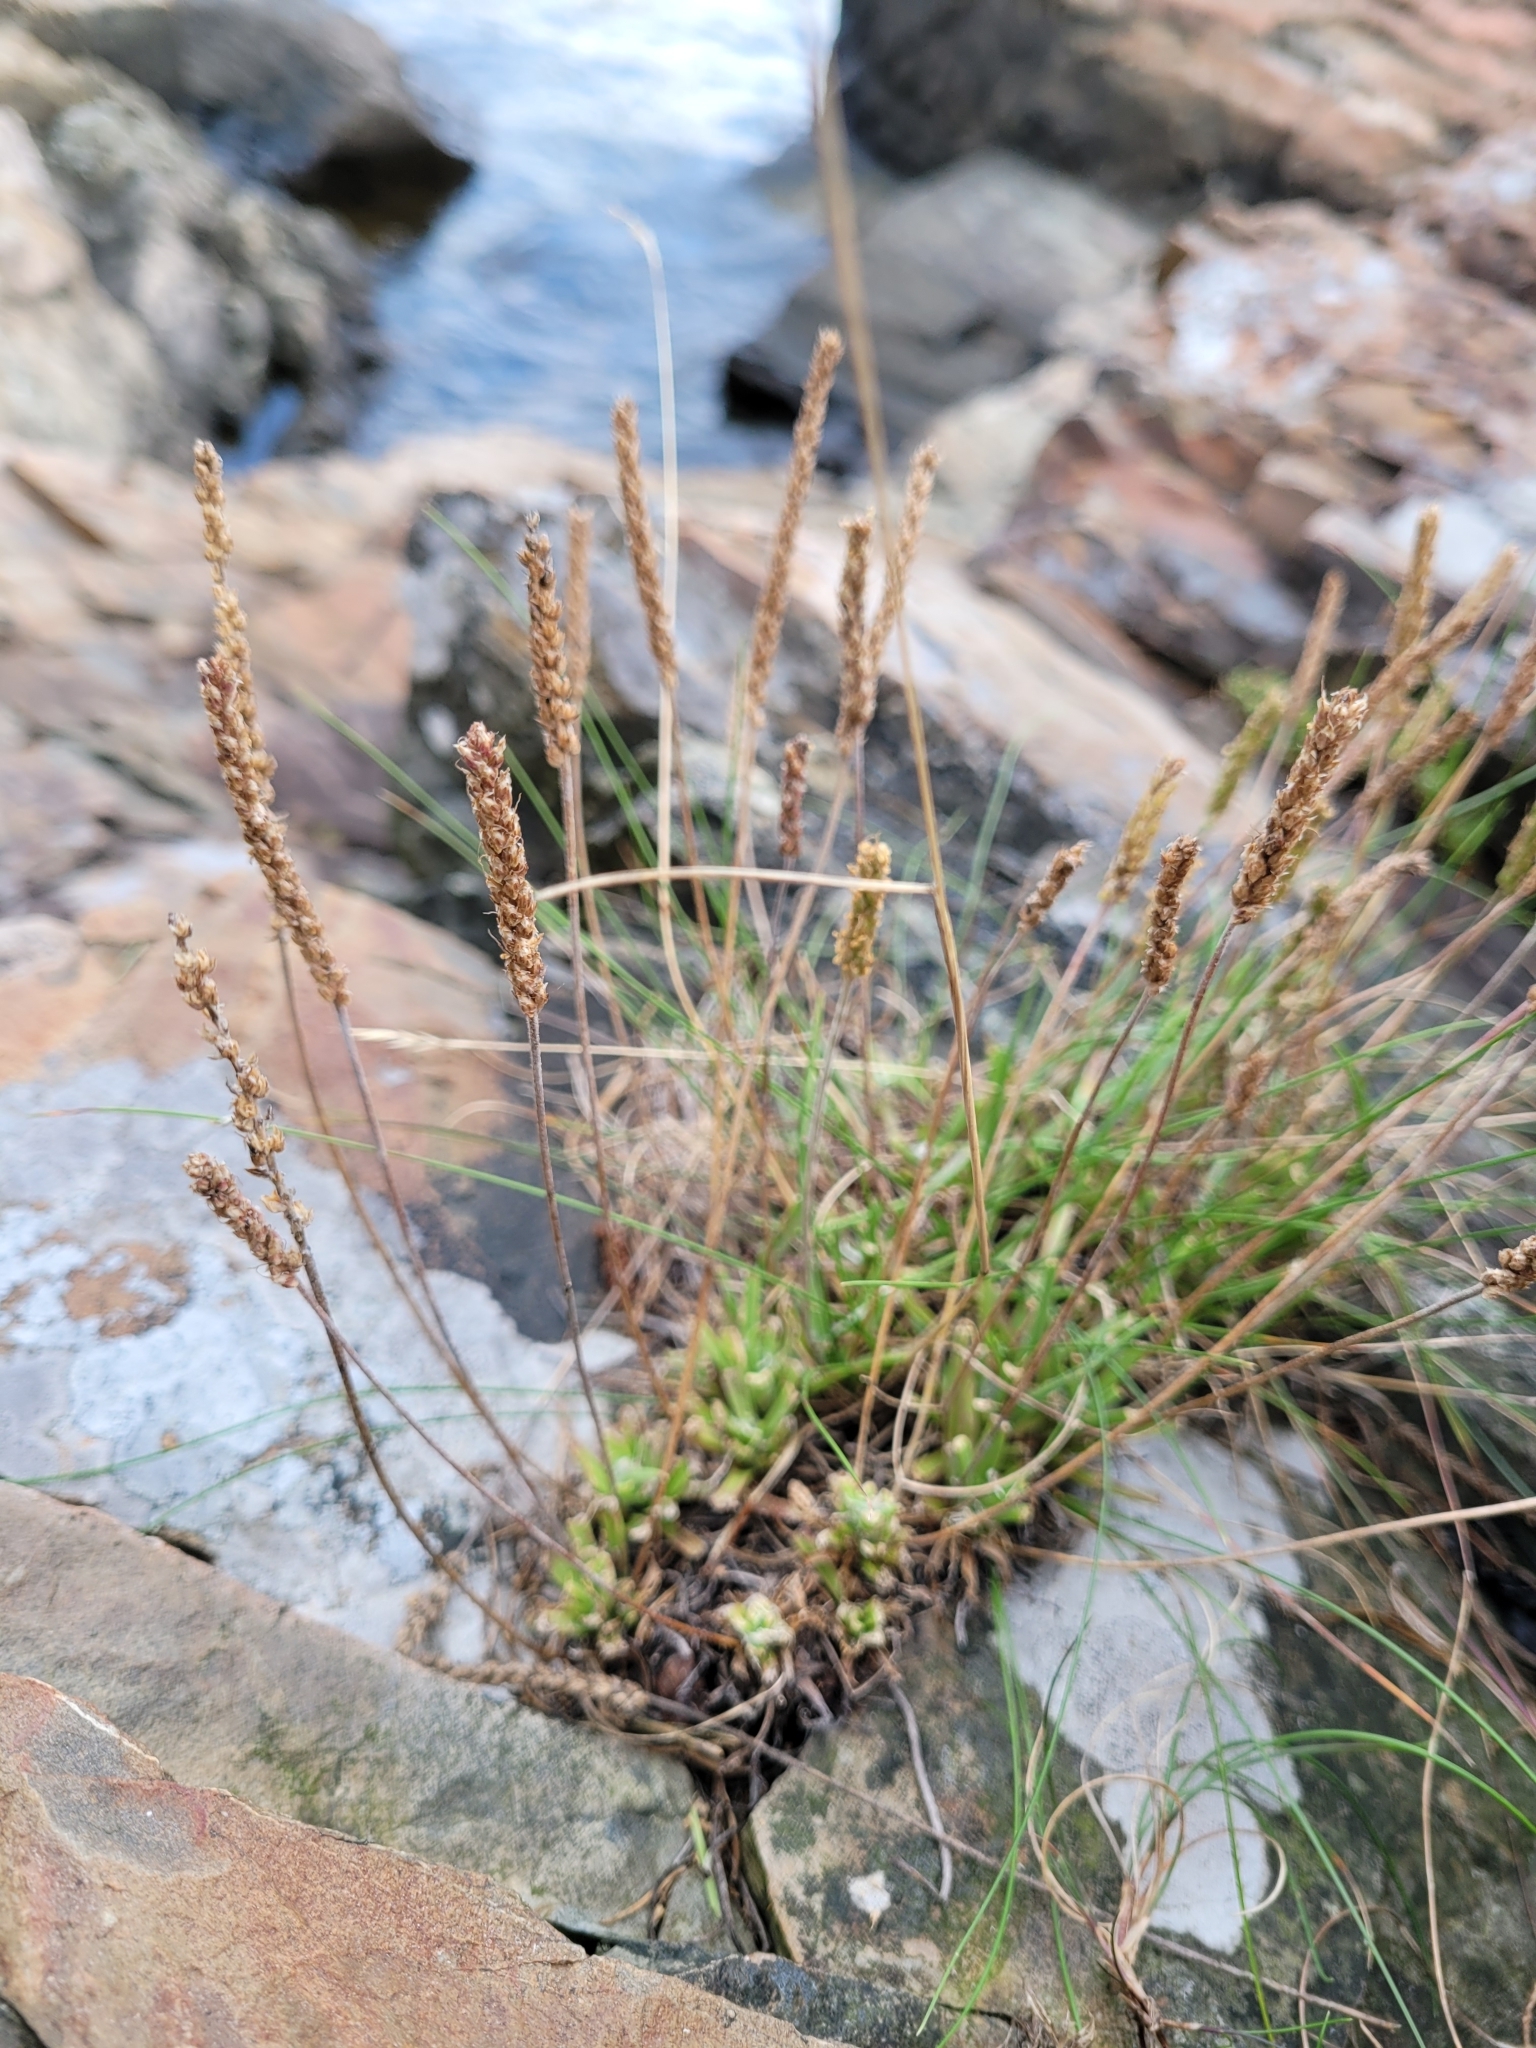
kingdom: Plantae
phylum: Tracheophyta
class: Magnoliopsida
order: Lamiales
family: Plantaginaceae
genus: Plantago
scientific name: Plantago maritima
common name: Sea plantain
